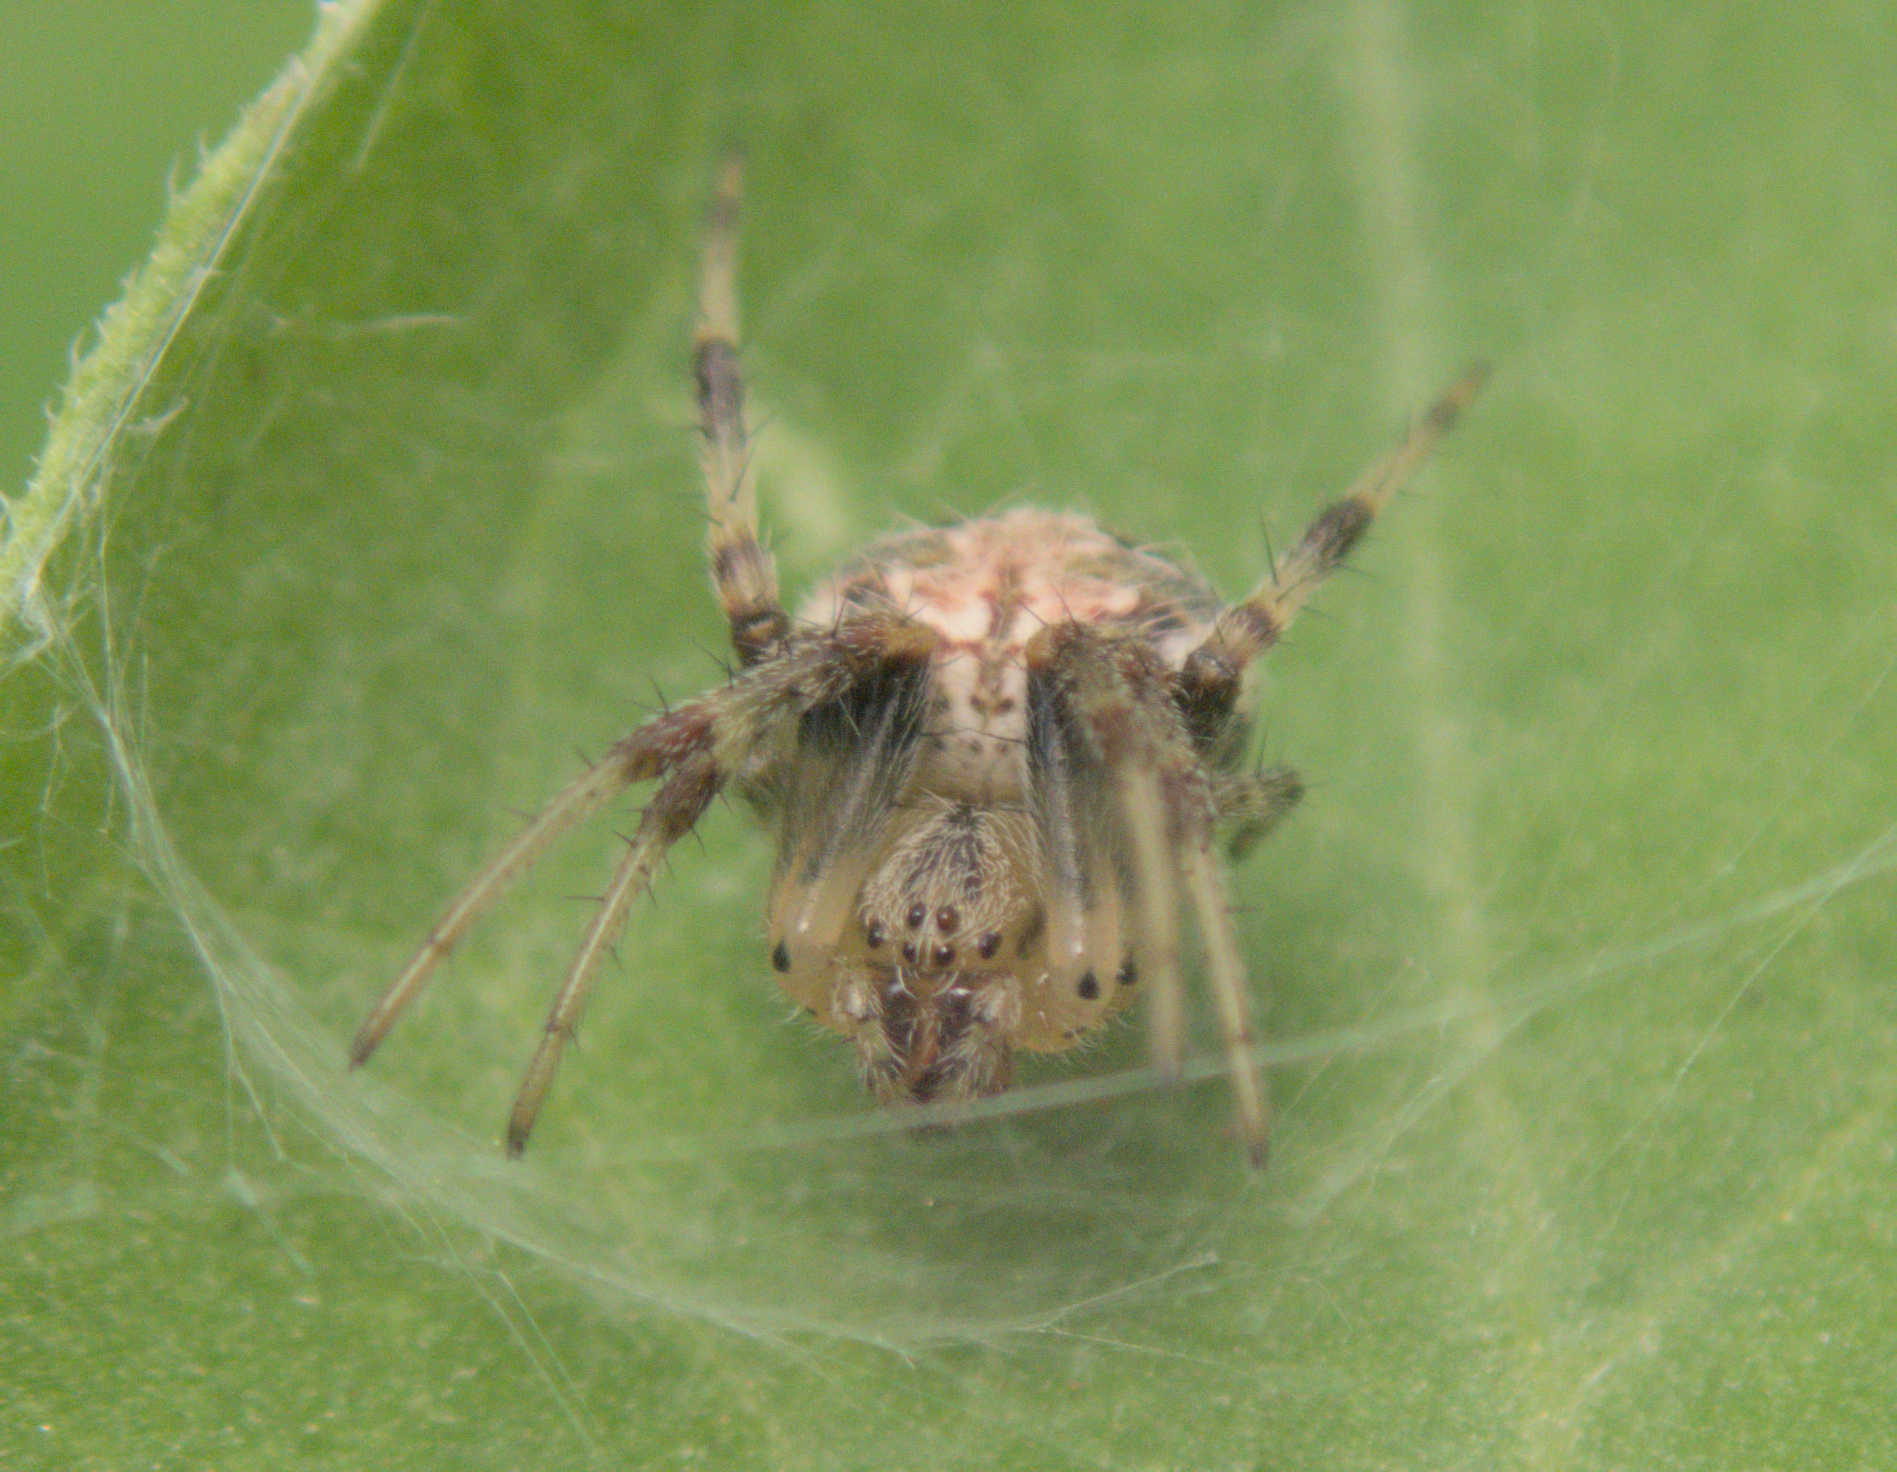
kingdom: Animalia
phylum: Arthropoda
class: Arachnida
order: Araneae
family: Araneidae
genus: Neoscona
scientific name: Neoscona arabesca
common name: Orb weavers
